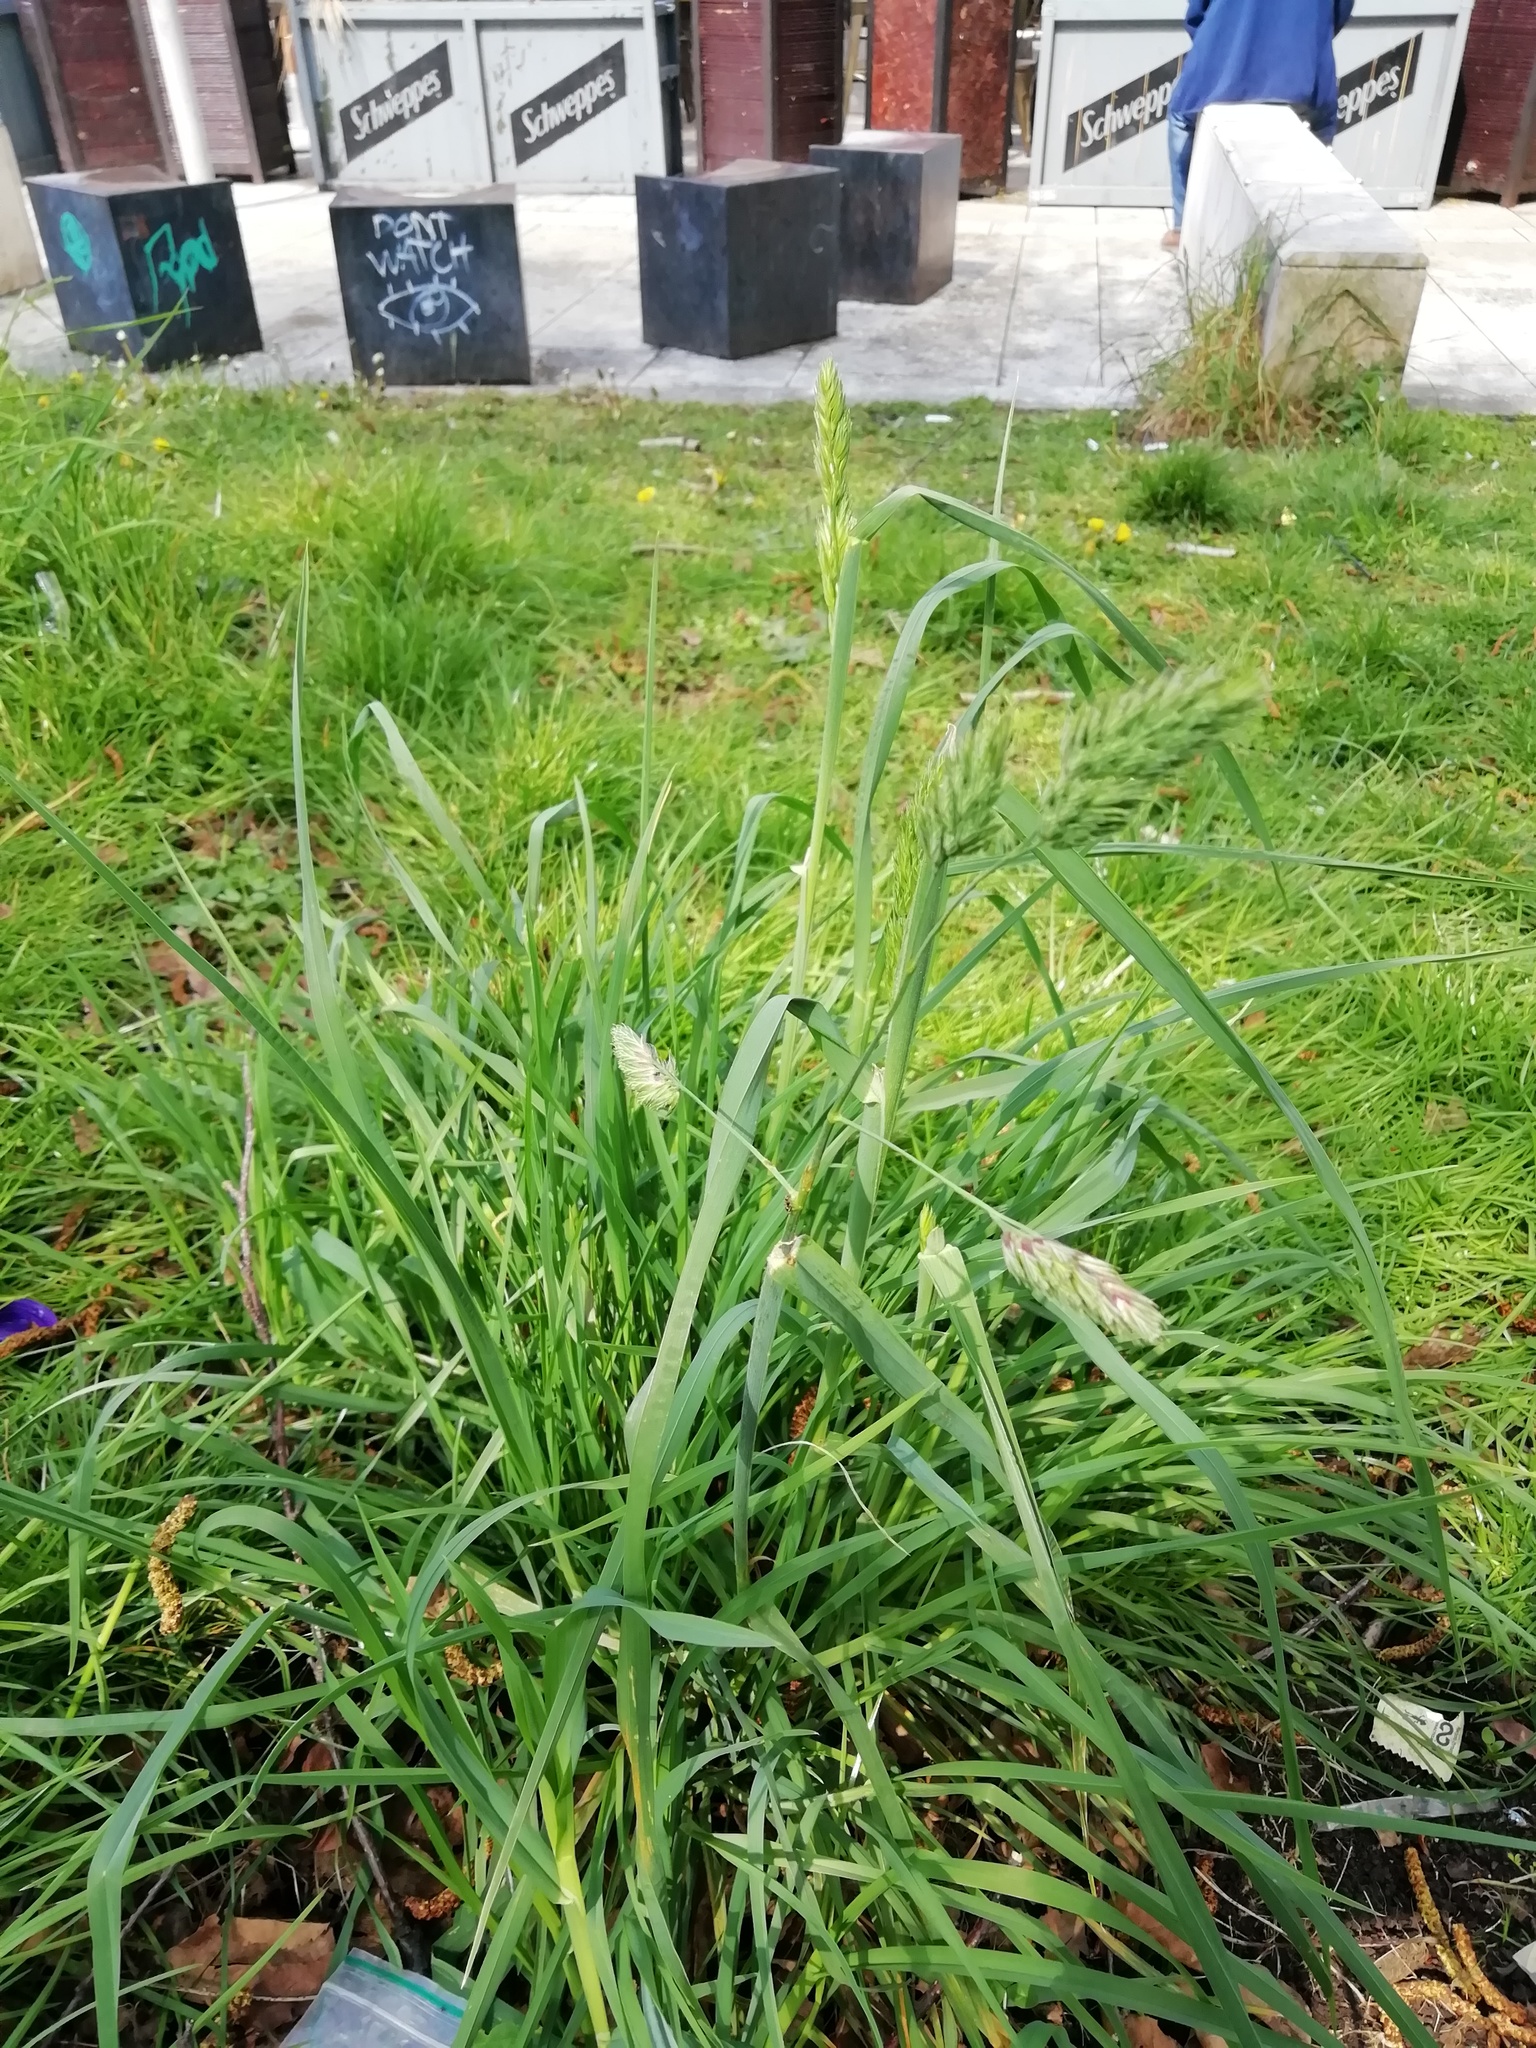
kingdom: Plantae
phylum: Tracheophyta
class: Liliopsida
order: Poales
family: Poaceae
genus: Dactylis
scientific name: Dactylis glomerata
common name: Orchardgrass
